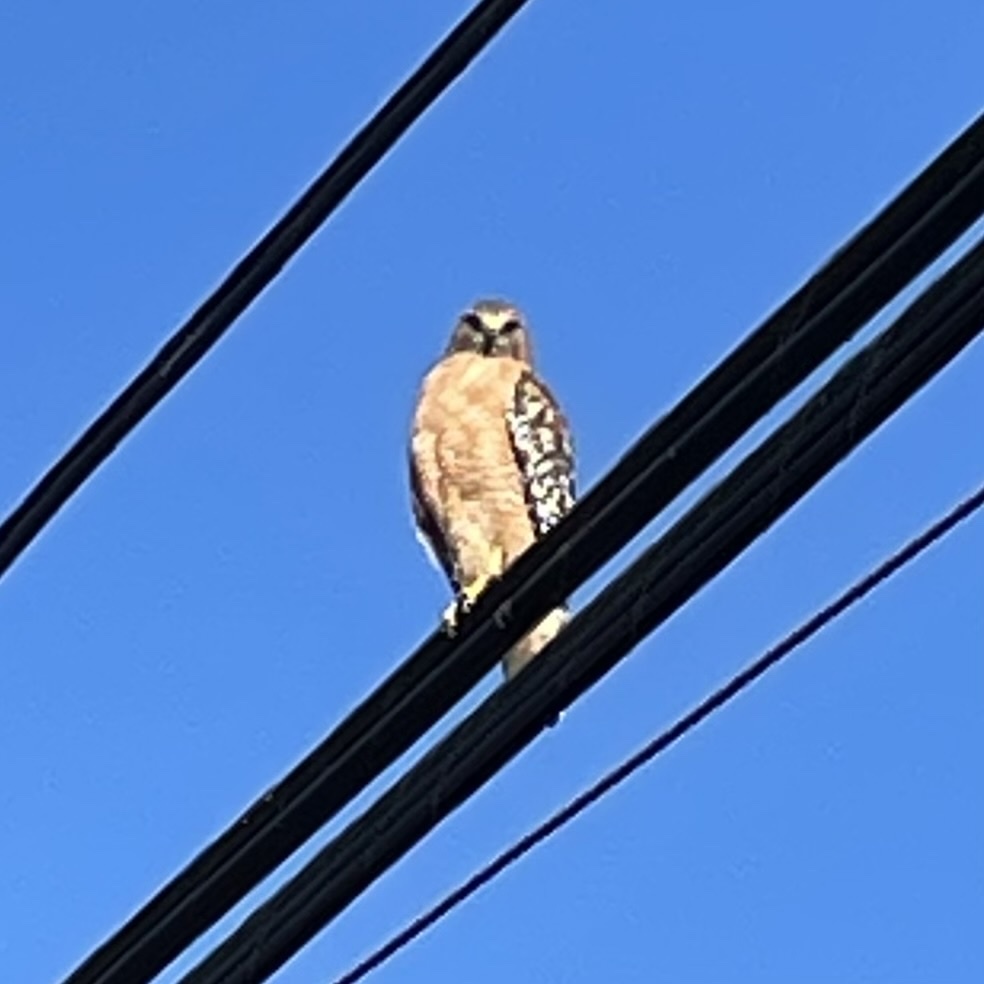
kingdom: Animalia
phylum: Chordata
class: Aves
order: Accipitriformes
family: Accipitridae
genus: Buteo
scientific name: Buteo lineatus
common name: Red-shouldered hawk
